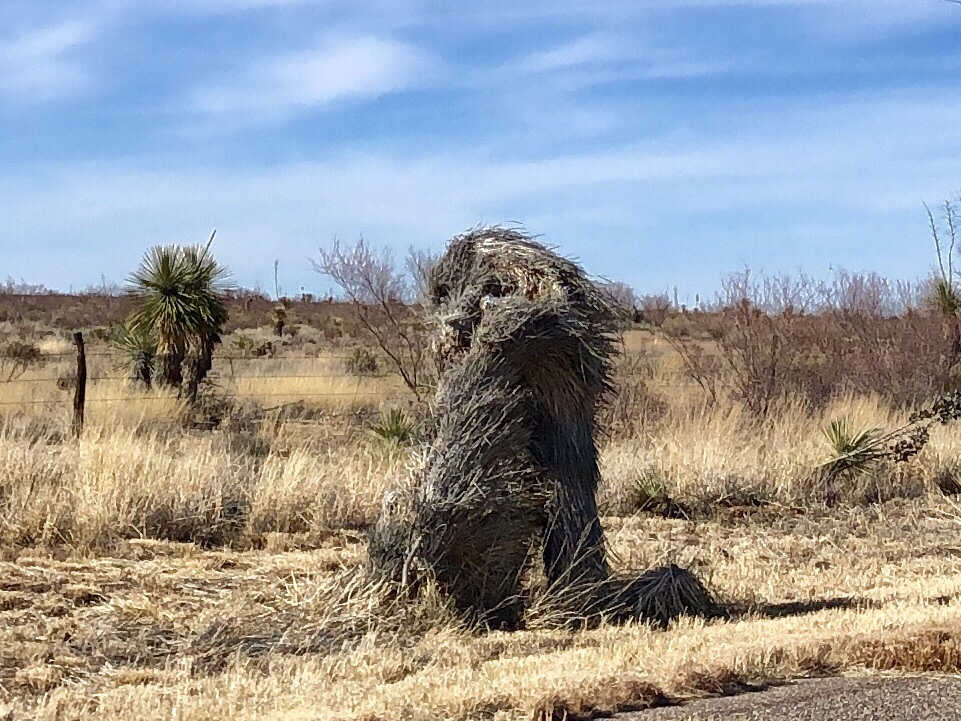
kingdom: Plantae
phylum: Tracheophyta
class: Liliopsida
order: Asparagales
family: Asparagaceae
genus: Yucca
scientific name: Yucca elata
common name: Palmella
